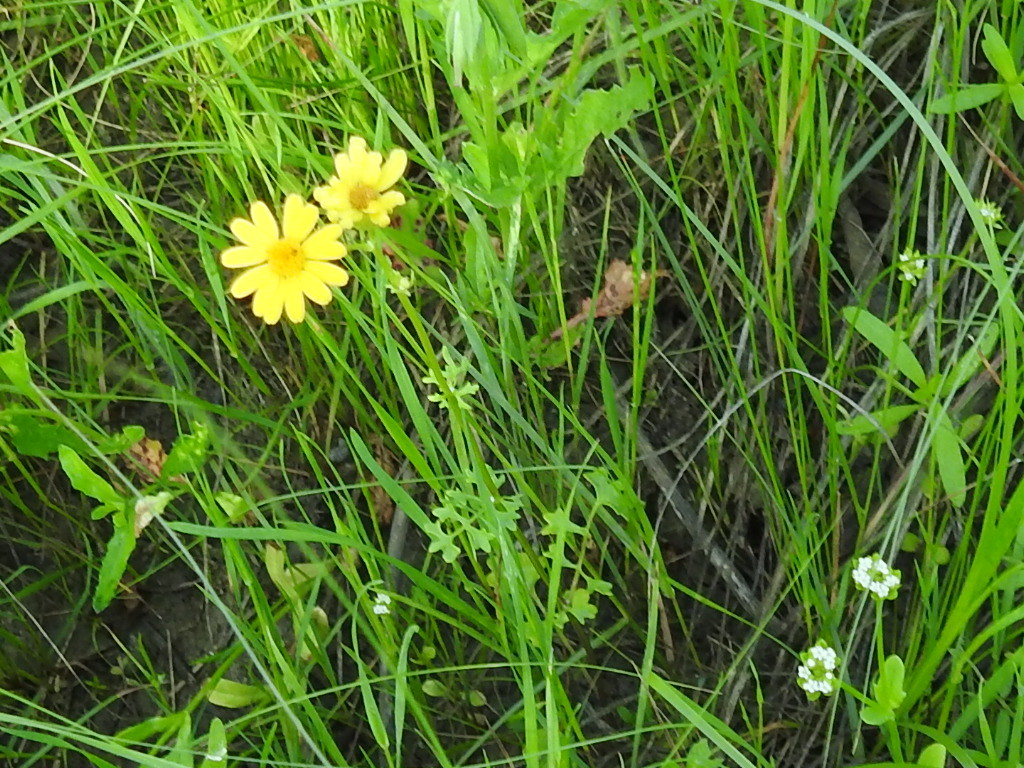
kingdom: Plantae
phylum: Tracheophyta
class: Magnoliopsida
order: Asterales
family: Asteraceae
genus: Packera
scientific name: Packera tampicana
